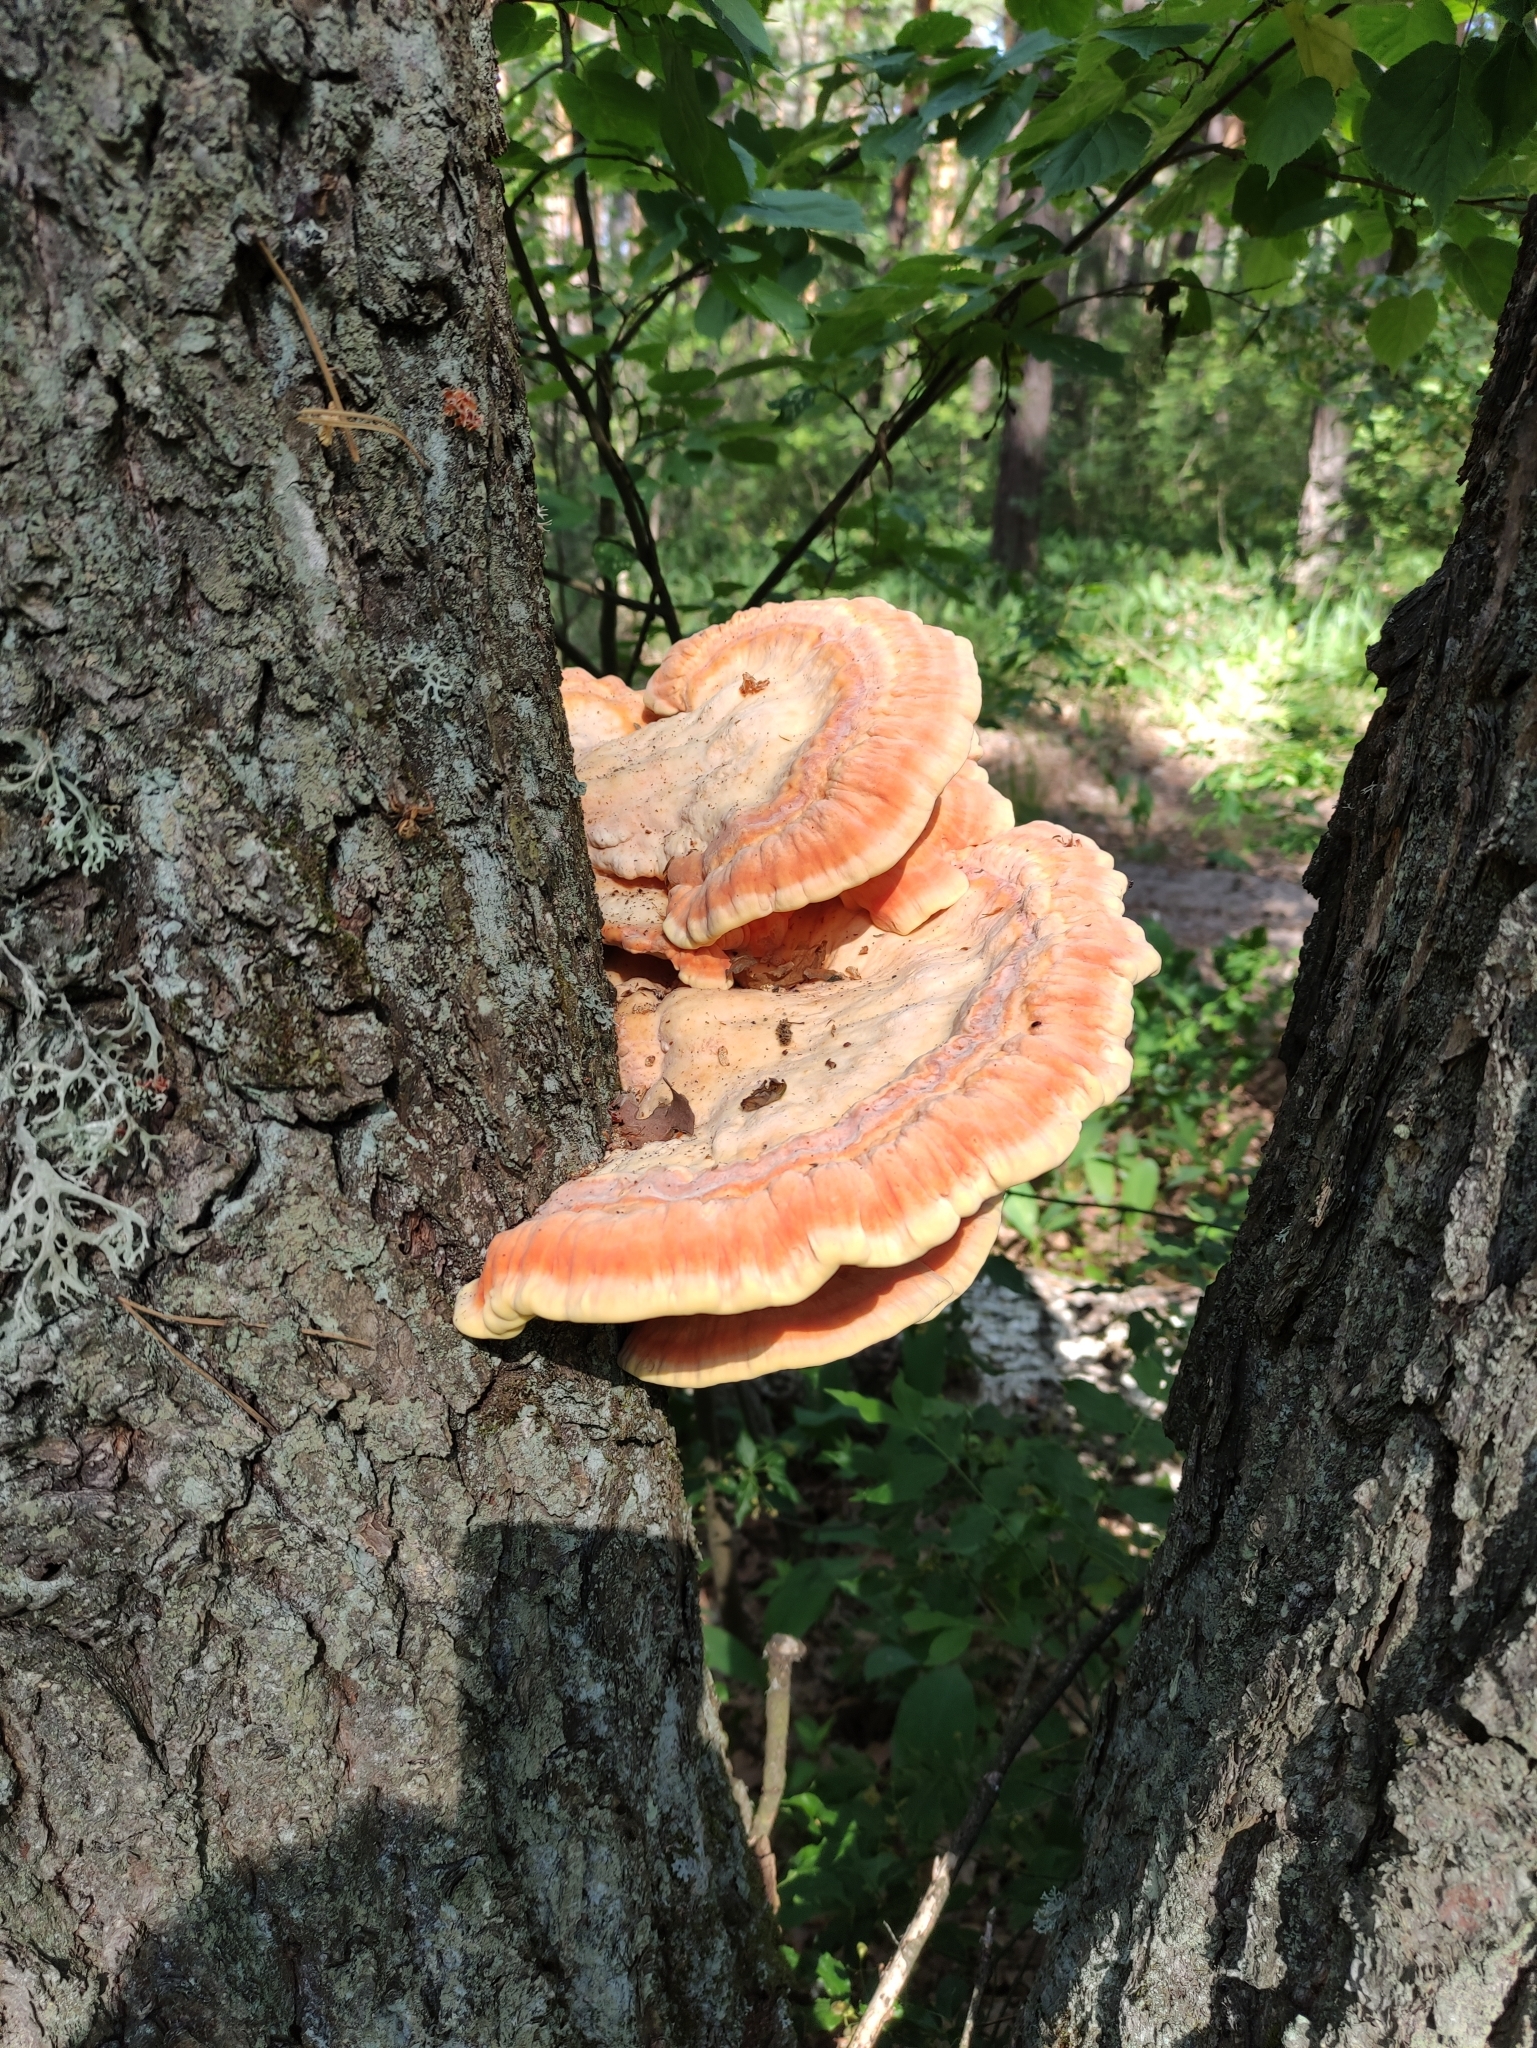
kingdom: Fungi
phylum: Basidiomycota
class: Agaricomycetes
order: Polyporales
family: Laetiporaceae
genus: Laetiporus
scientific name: Laetiporus sulphureus
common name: Chicken of the woods
